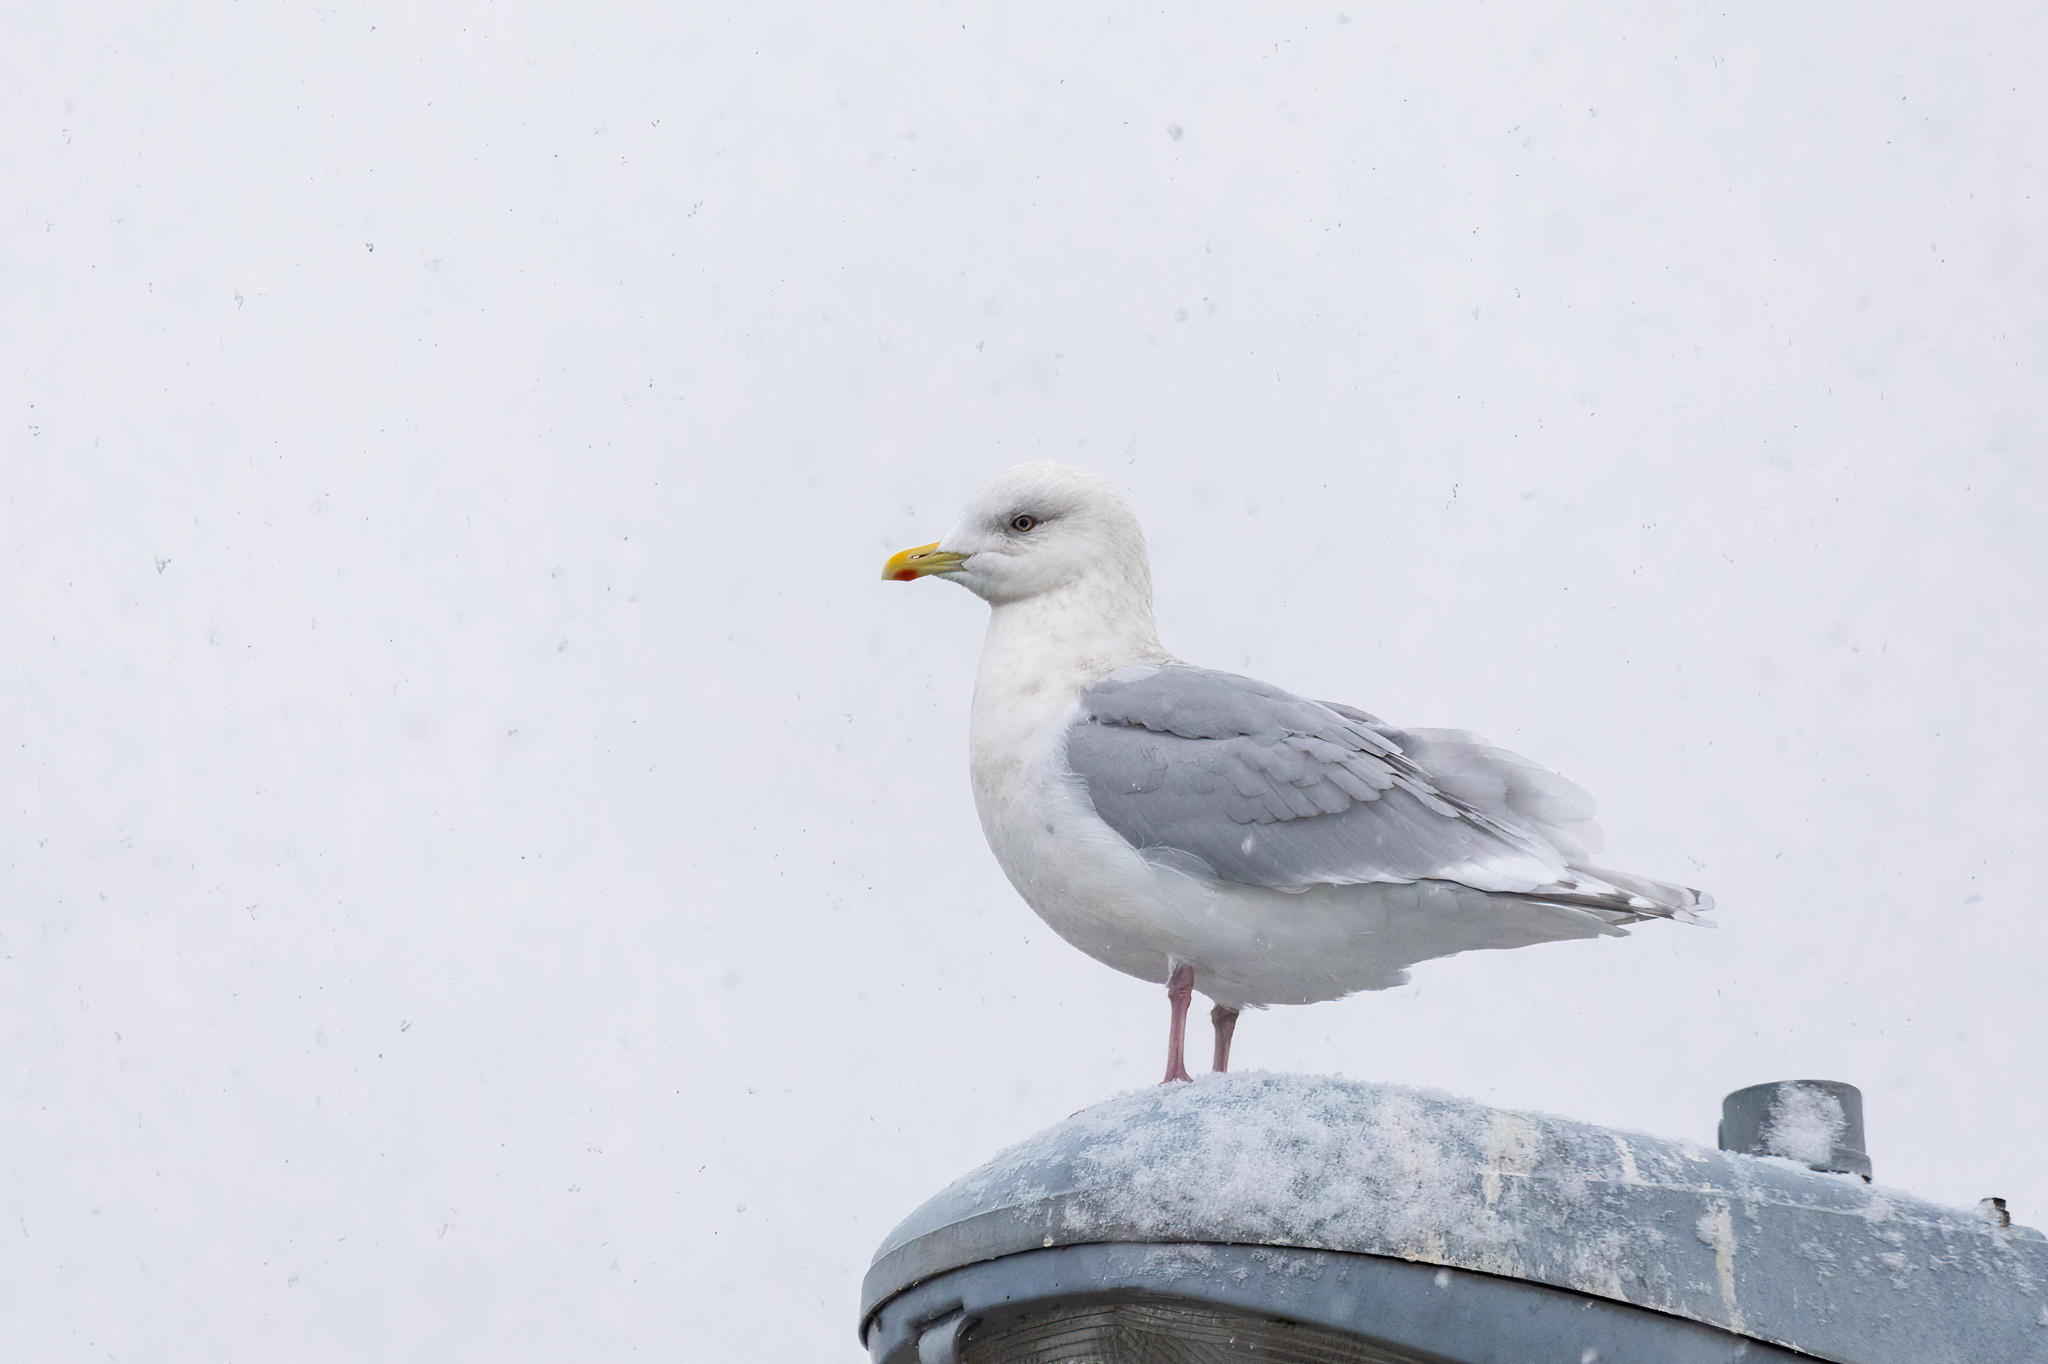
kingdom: Animalia
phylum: Chordata
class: Aves
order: Charadriiformes
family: Laridae
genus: Larus
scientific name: Larus glaucoides
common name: Iceland gull
